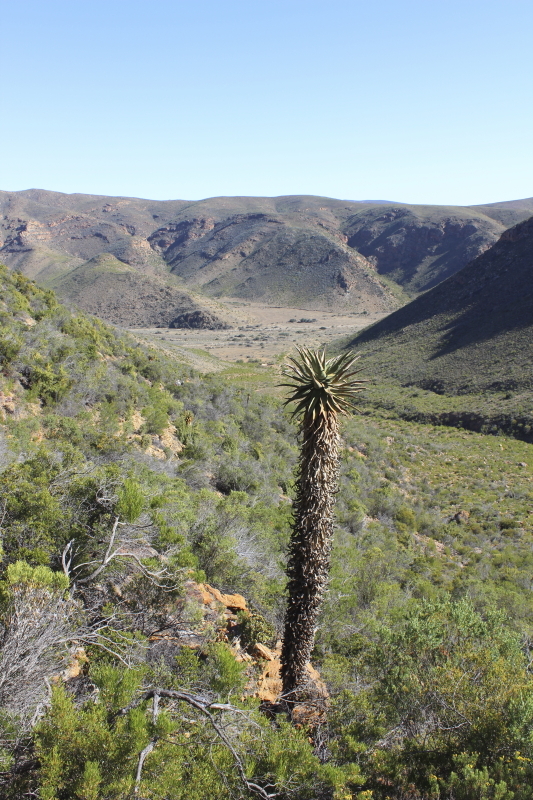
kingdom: Plantae
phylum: Tracheophyta
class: Liliopsida
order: Asparagales
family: Asphodelaceae
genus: Aloe
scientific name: Aloe ferox
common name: Bitter aloe
